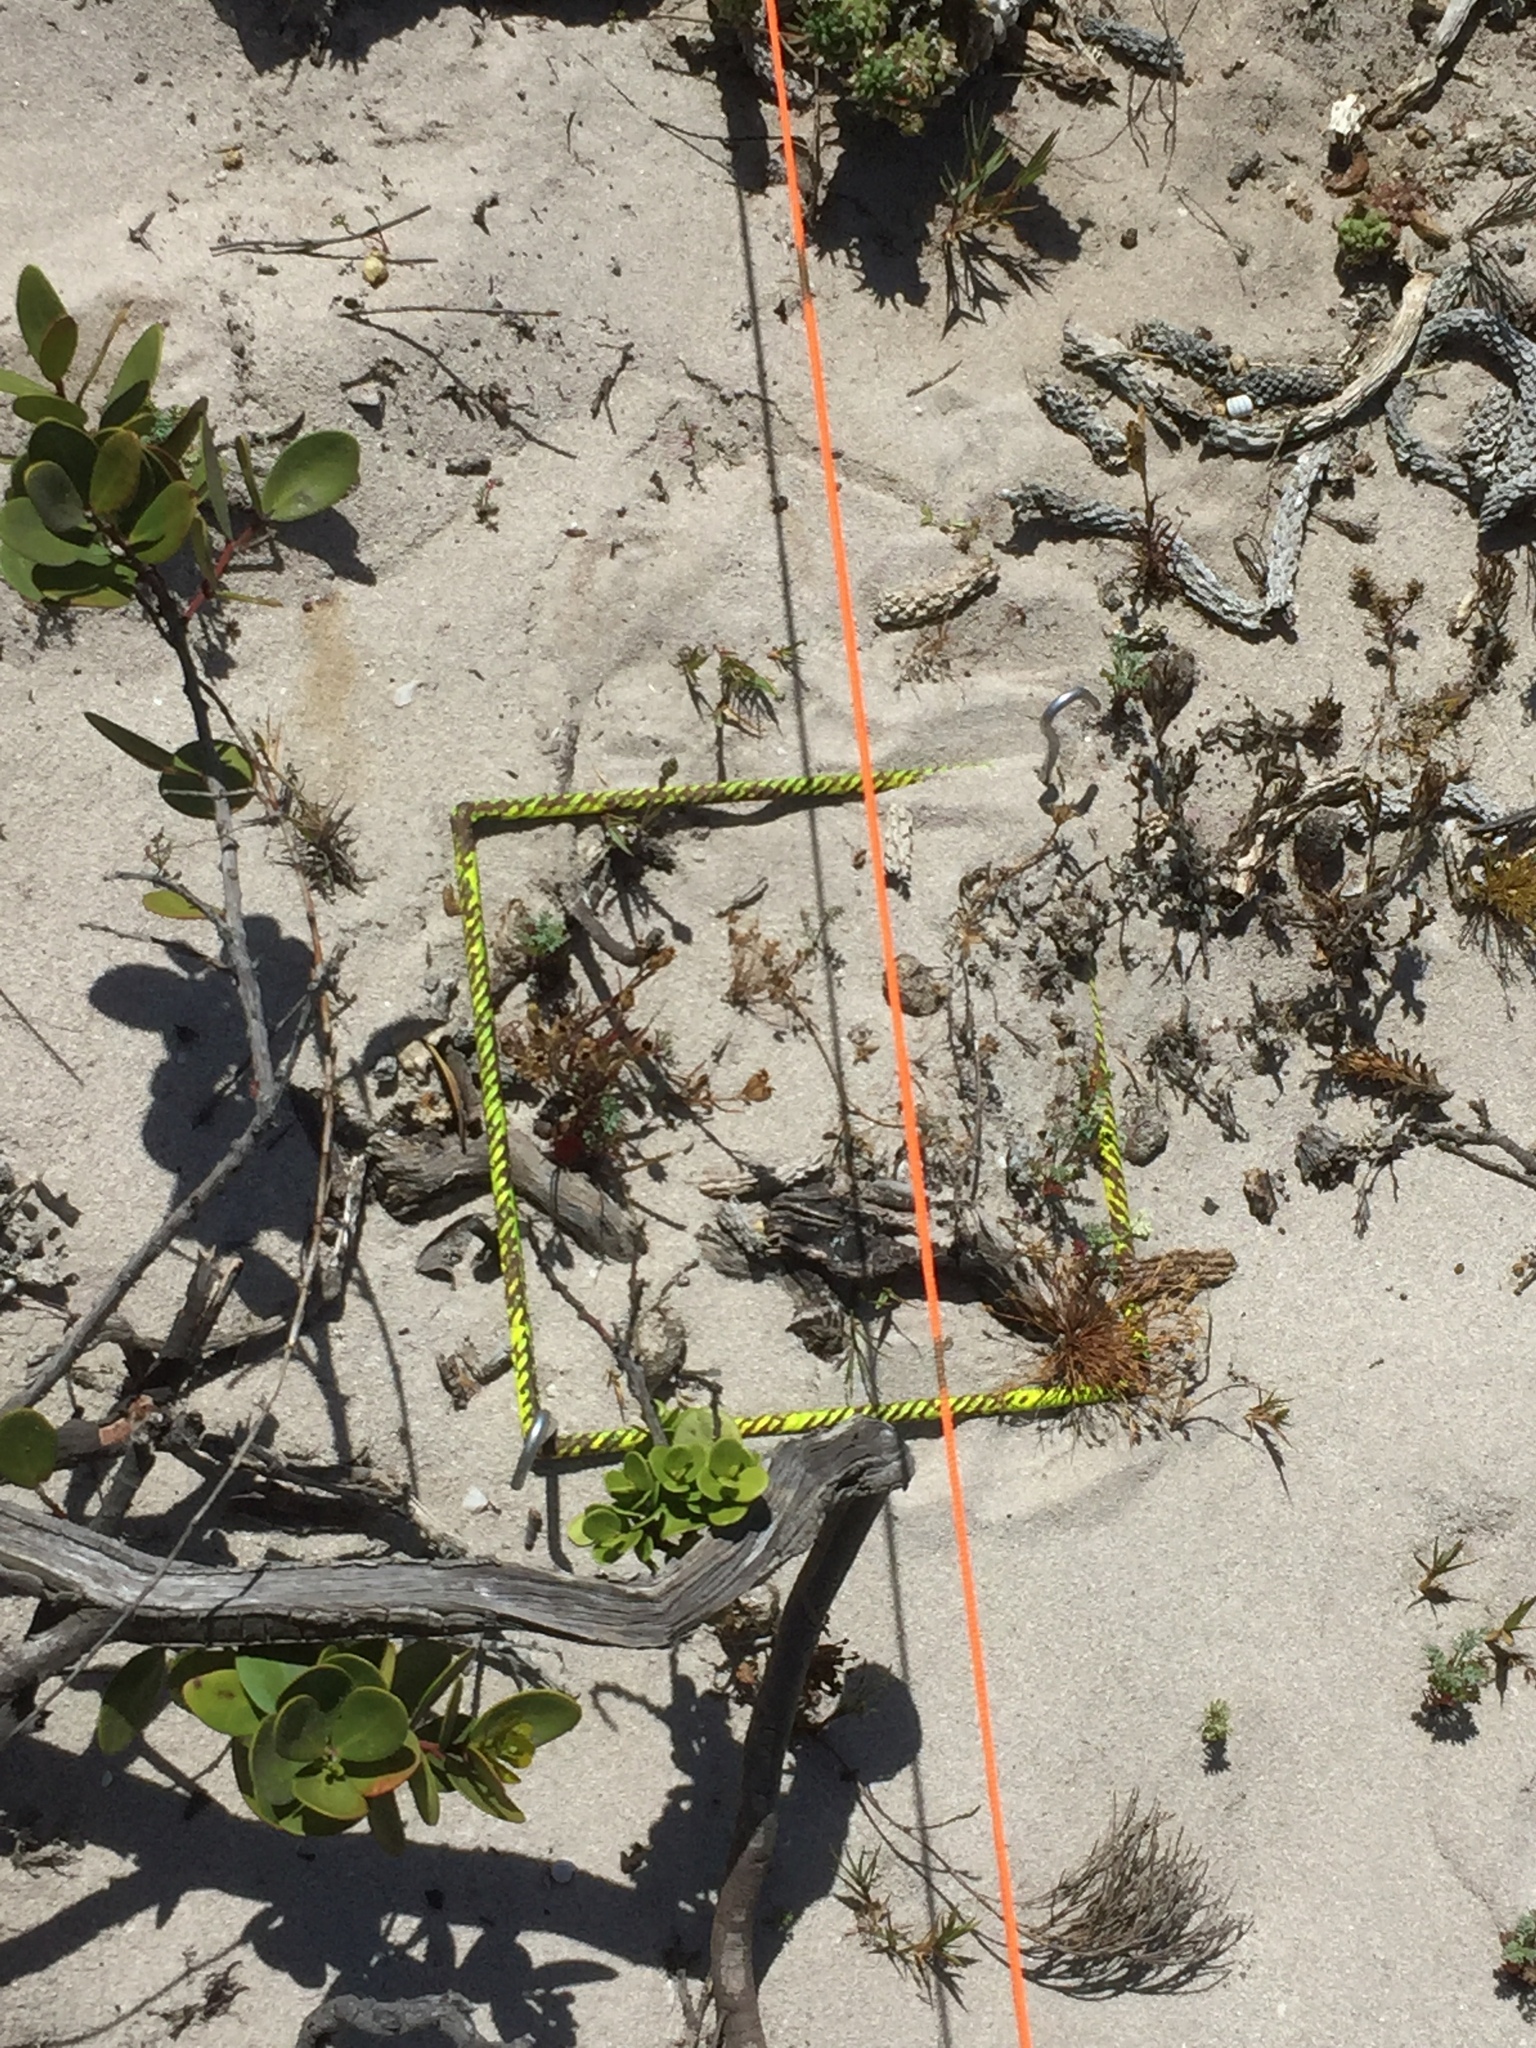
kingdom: Plantae
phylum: Tracheophyta
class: Magnoliopsida
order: Apiales
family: Apiaceae
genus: Dasispermum
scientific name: Dasispermum suffruticosum
